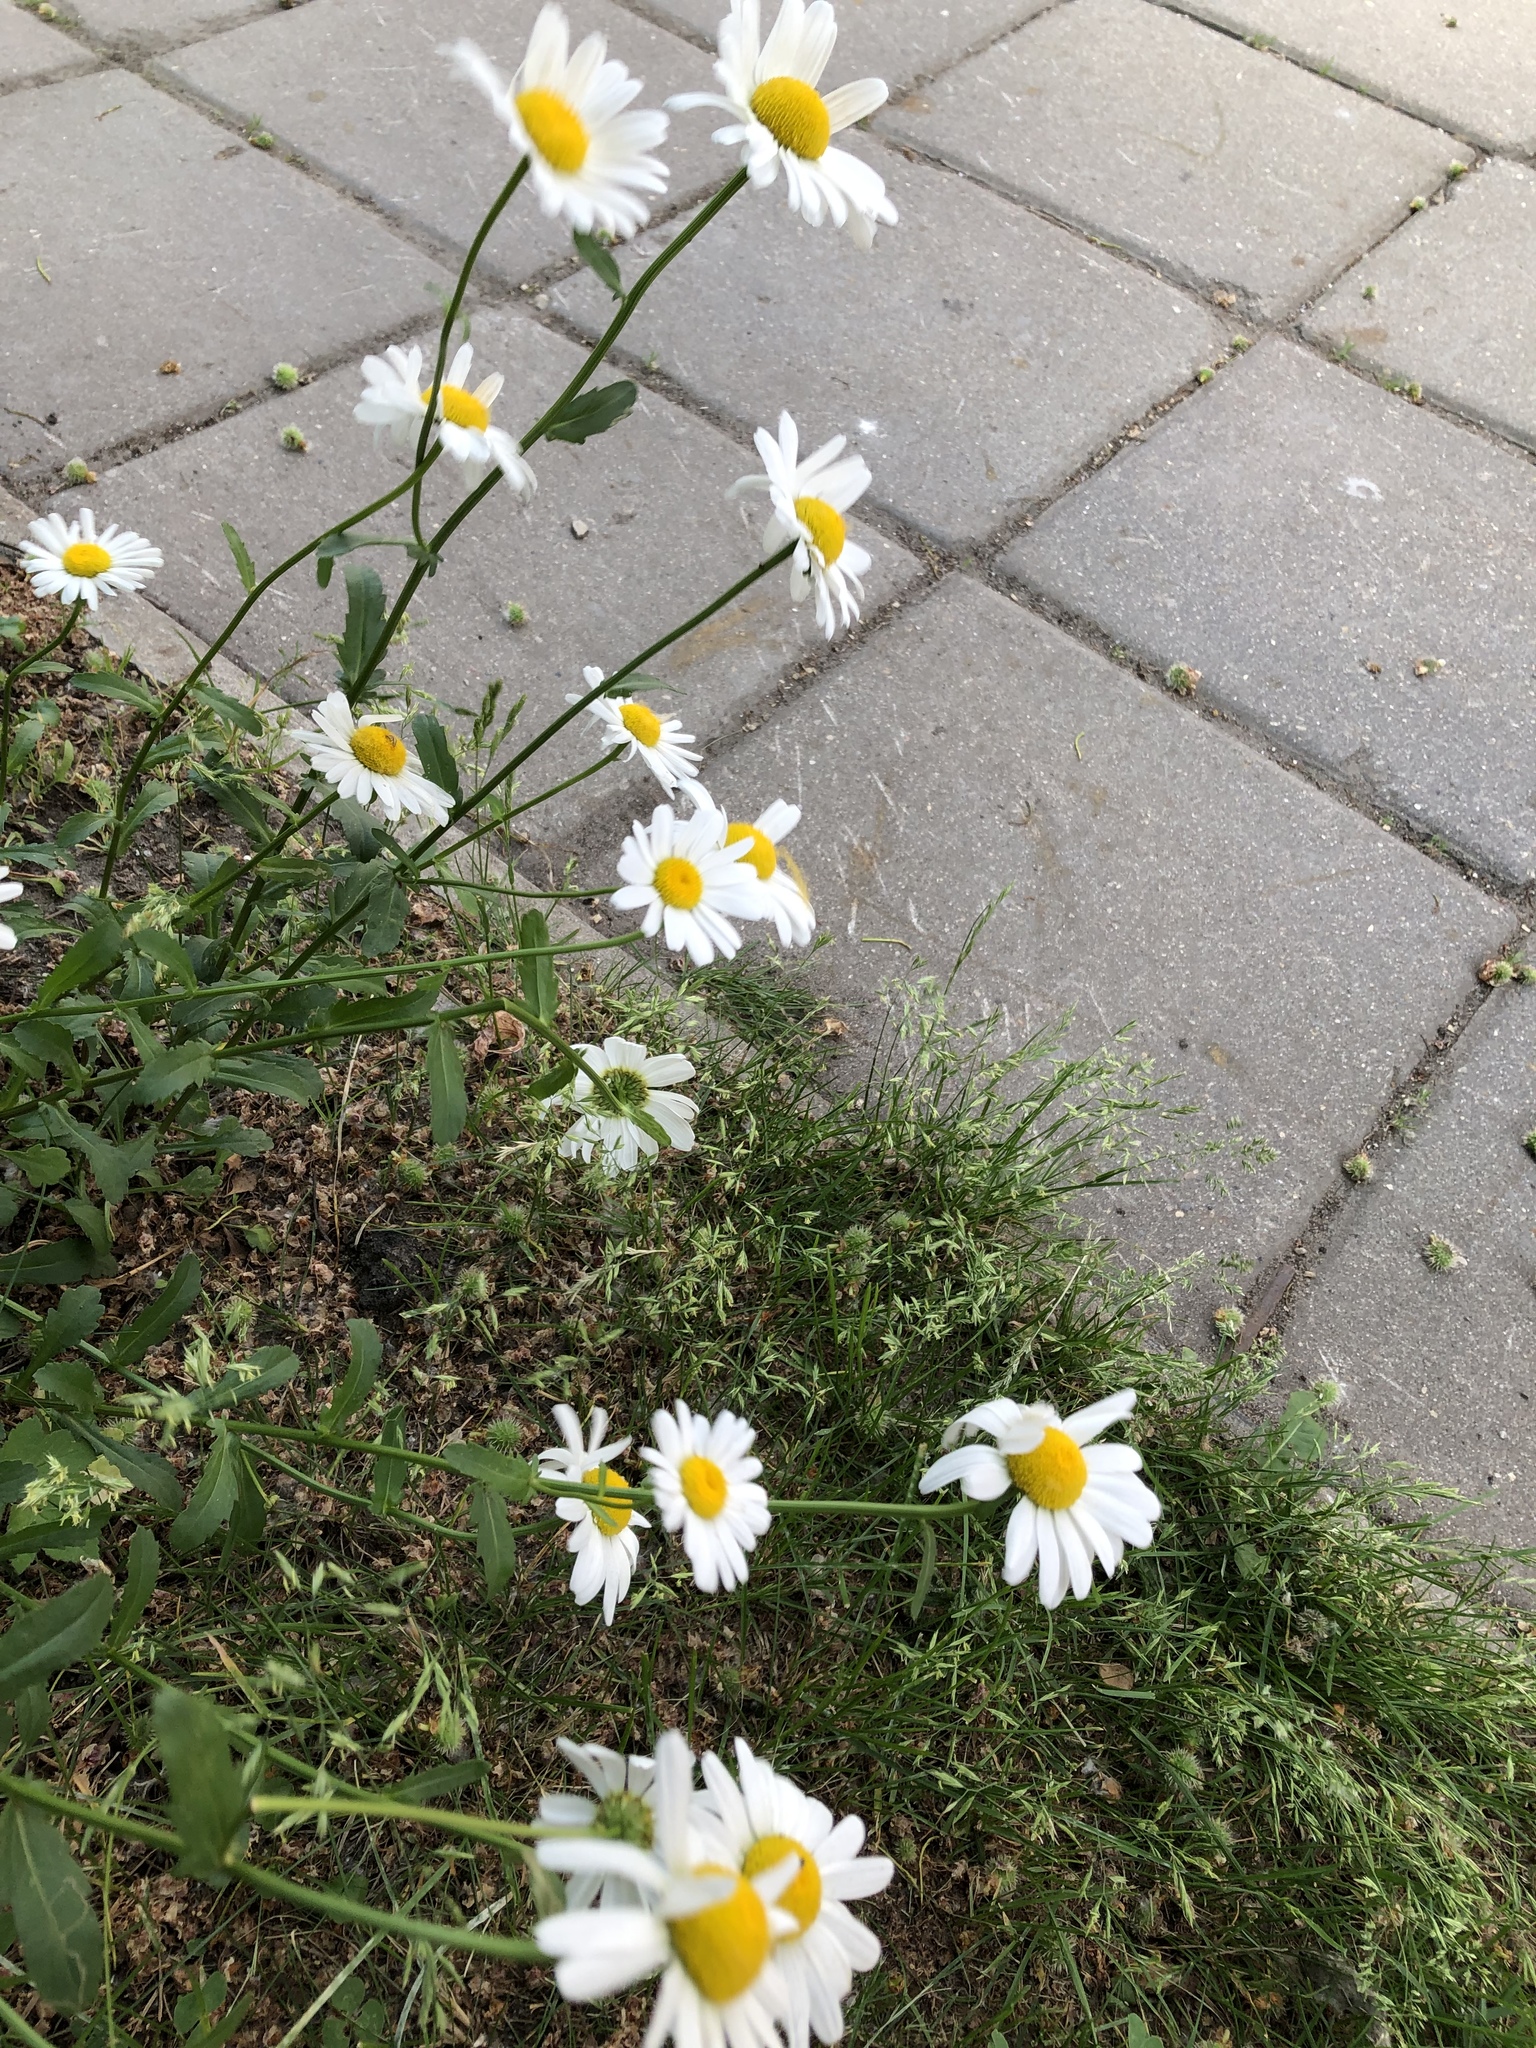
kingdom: Plantae
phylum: Tracheophyta
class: Magnoliopsida
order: Asterales
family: Asteraceae
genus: Leucanthemum
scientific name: Leucanthemum vulgare
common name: Oxeye daisy
